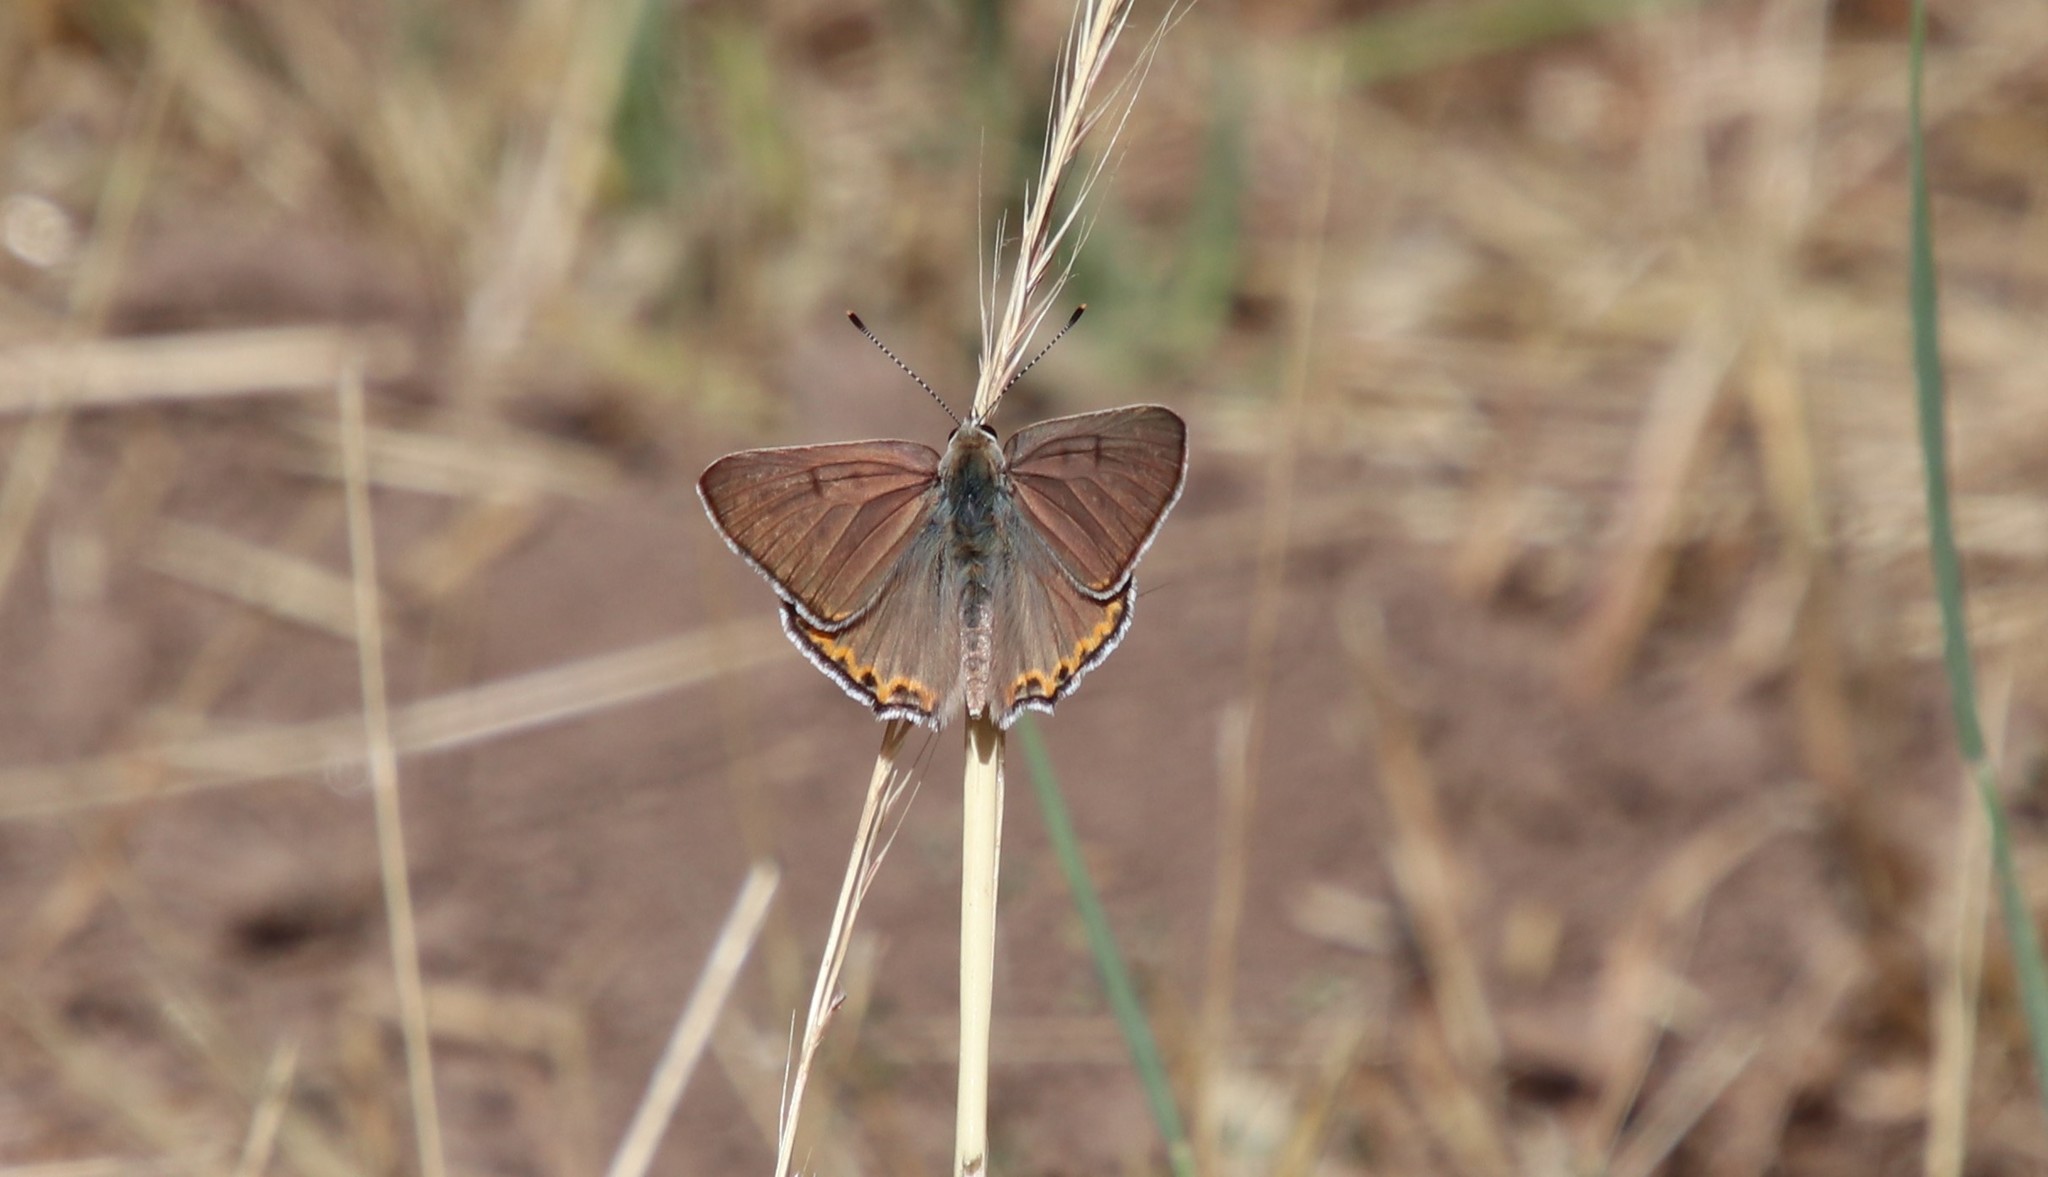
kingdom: Animalia
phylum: Arthropoda
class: Insecta
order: Lepidoptera
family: Lycaenidae
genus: Tharsalea
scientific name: Tharsalea xanthoides
